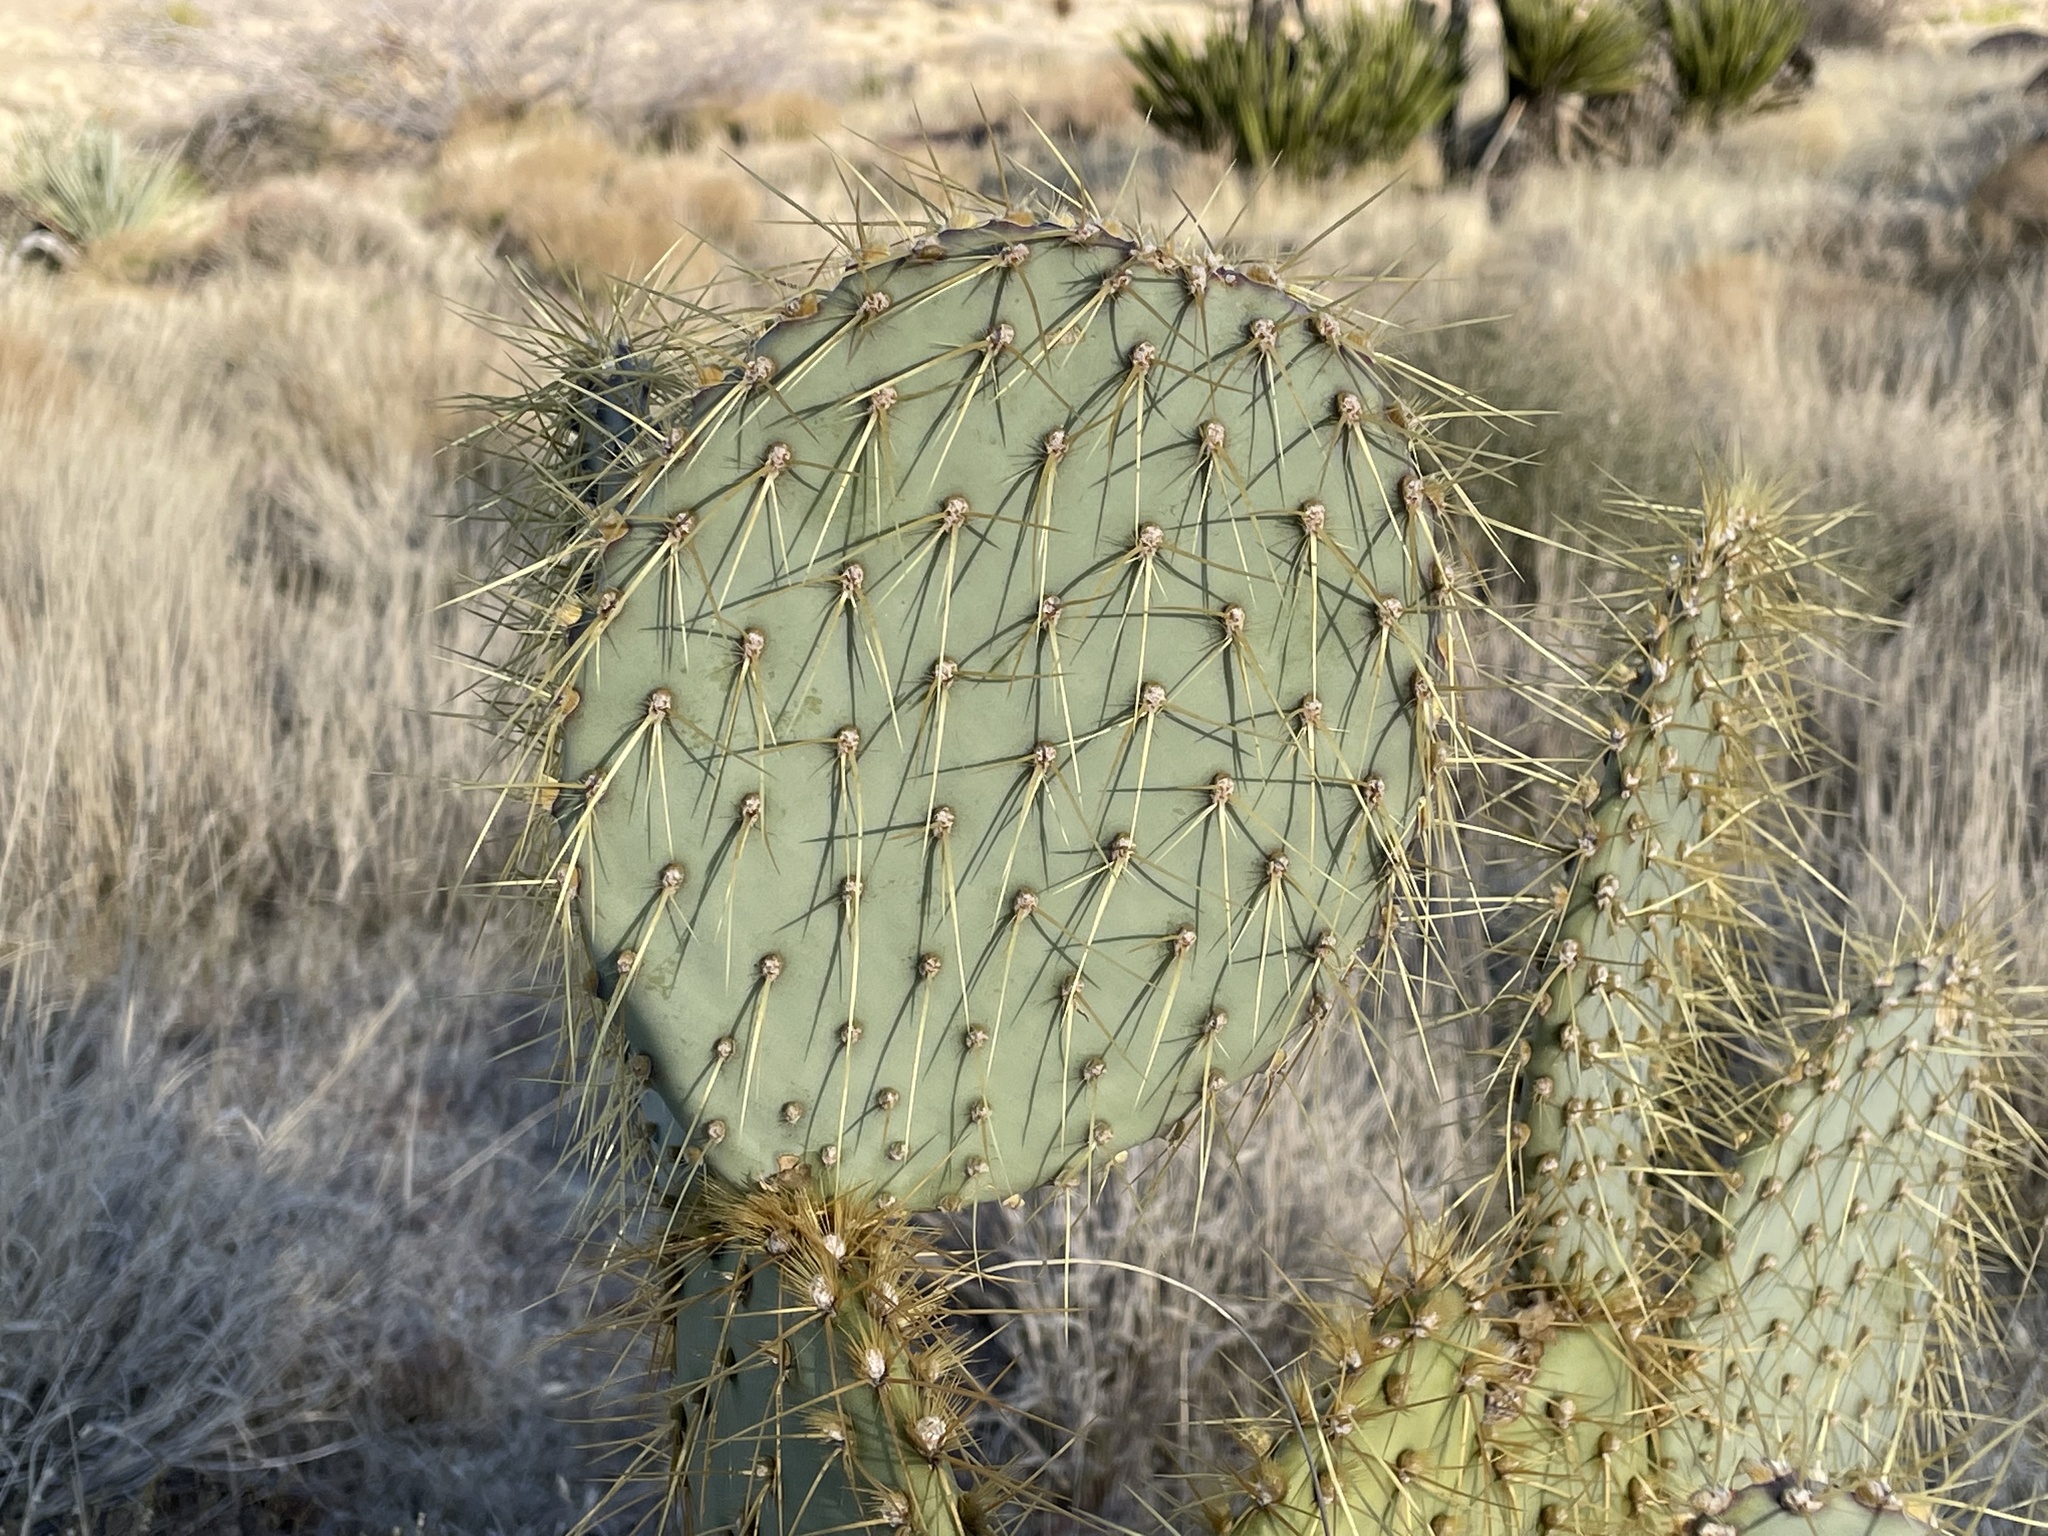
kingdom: Plantae
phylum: Tracheophyta
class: Magnoliopsida
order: Caryophyllales
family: Cactaceae
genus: Opuntia
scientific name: Opuntia chlorotica
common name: Dollar-joint prickly-pear
